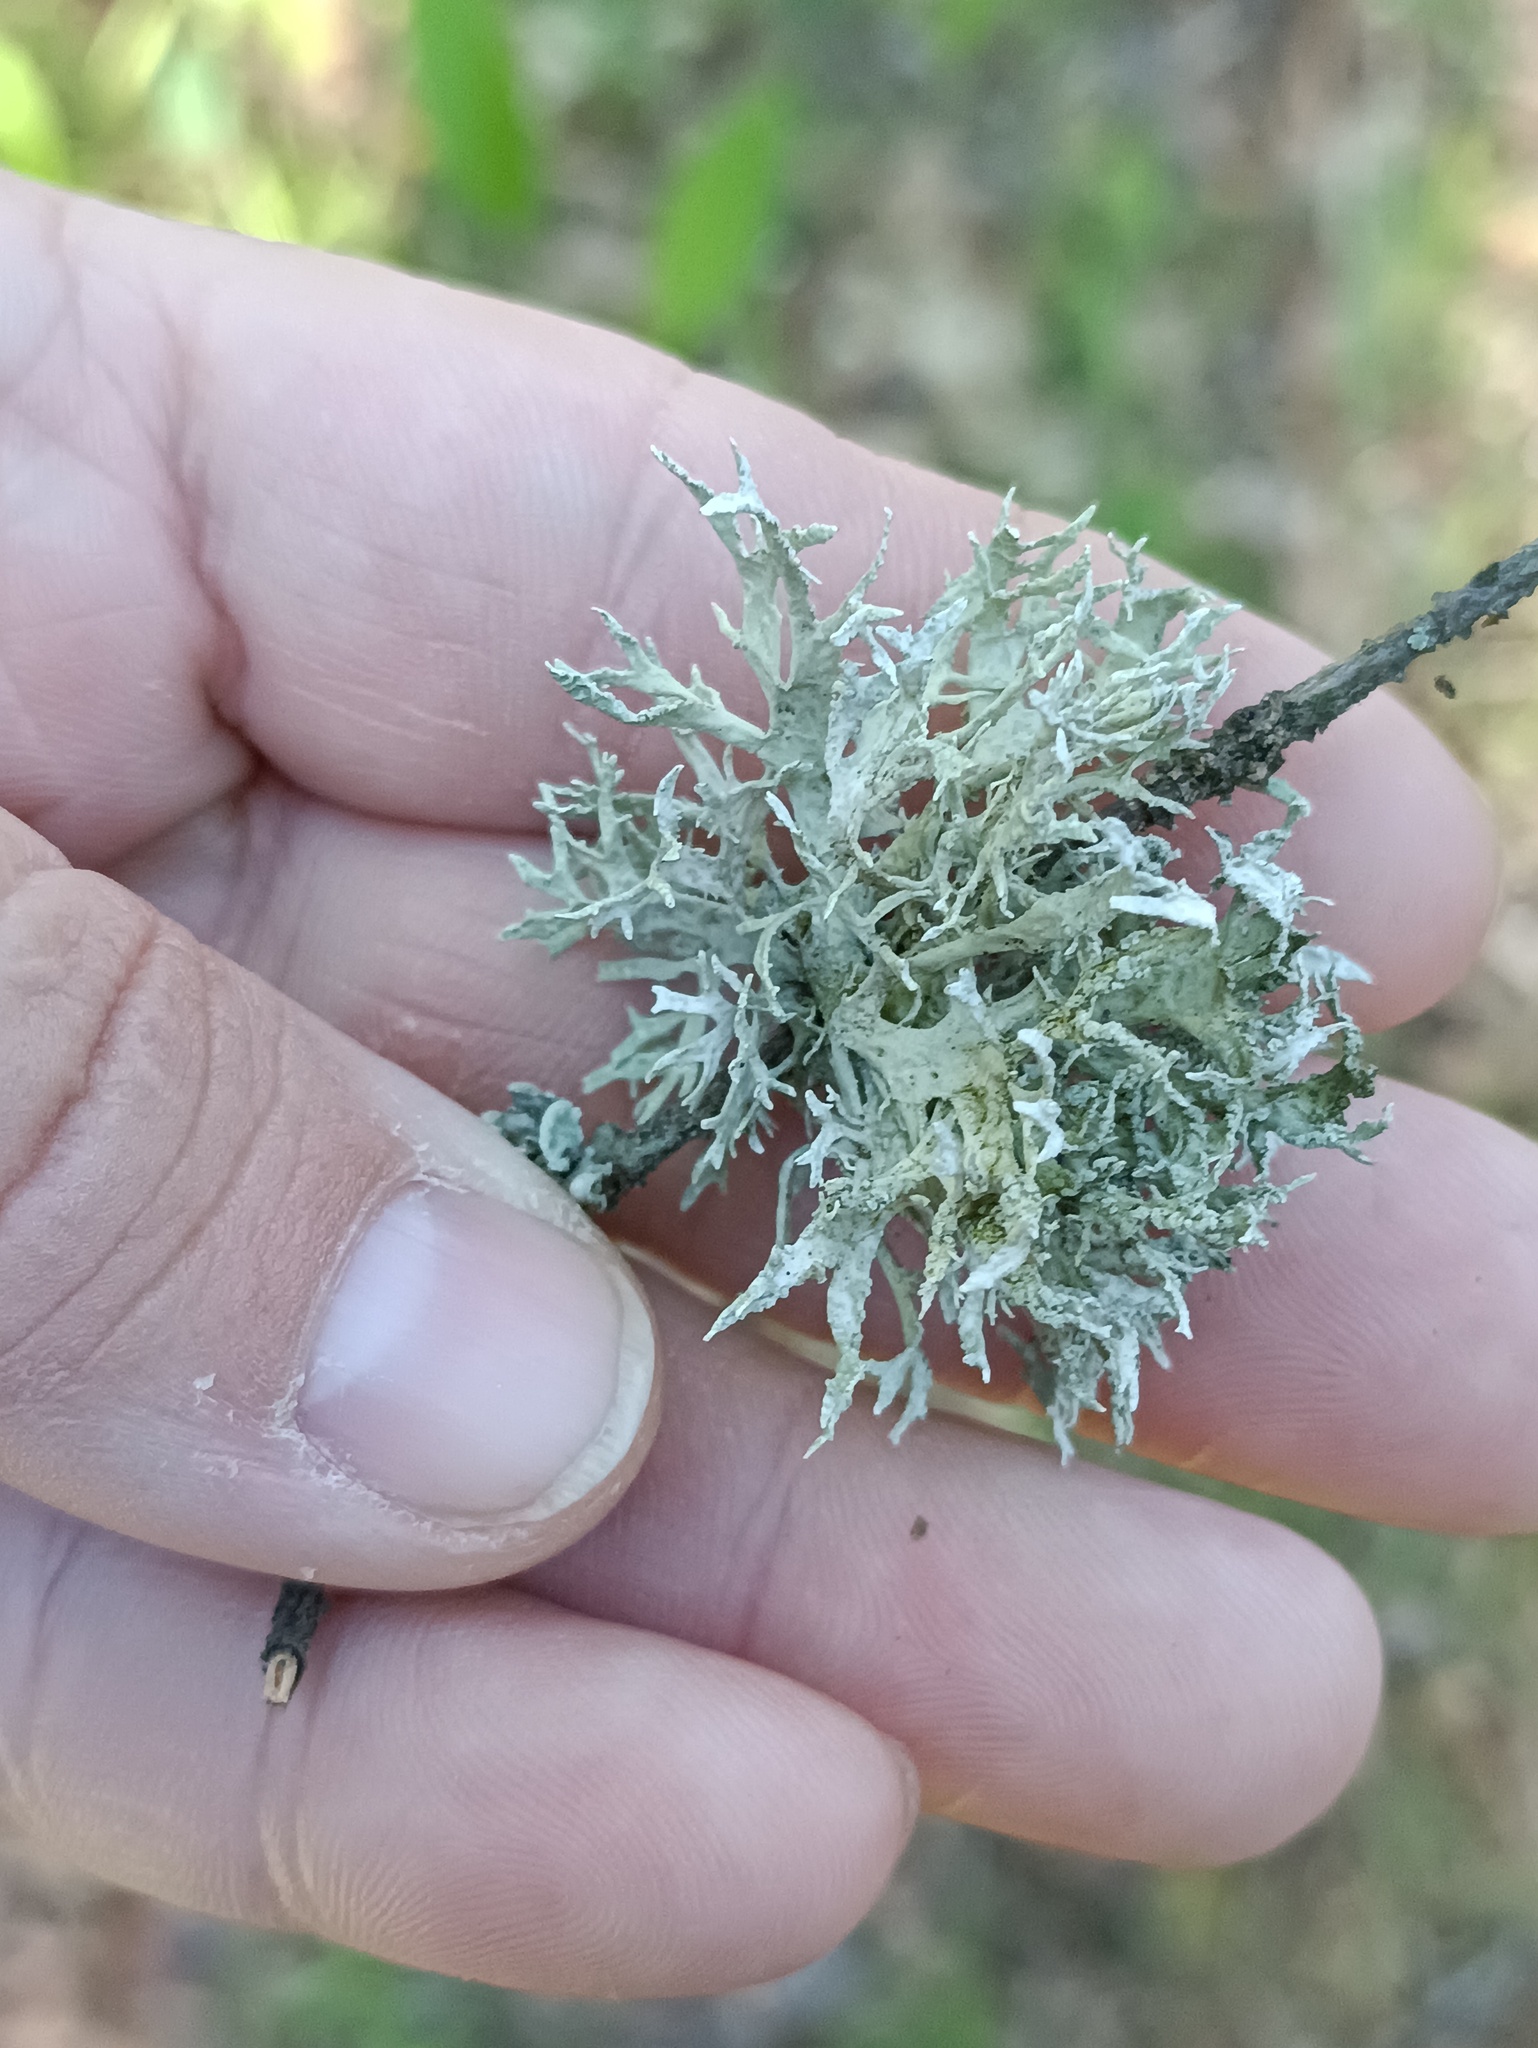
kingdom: Fungi
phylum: Ascomycota
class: Lecanoromycetes
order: Lecanorales
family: Parmeliaceae
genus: Evernia
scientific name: Evernia prunastri
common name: Oak moss
